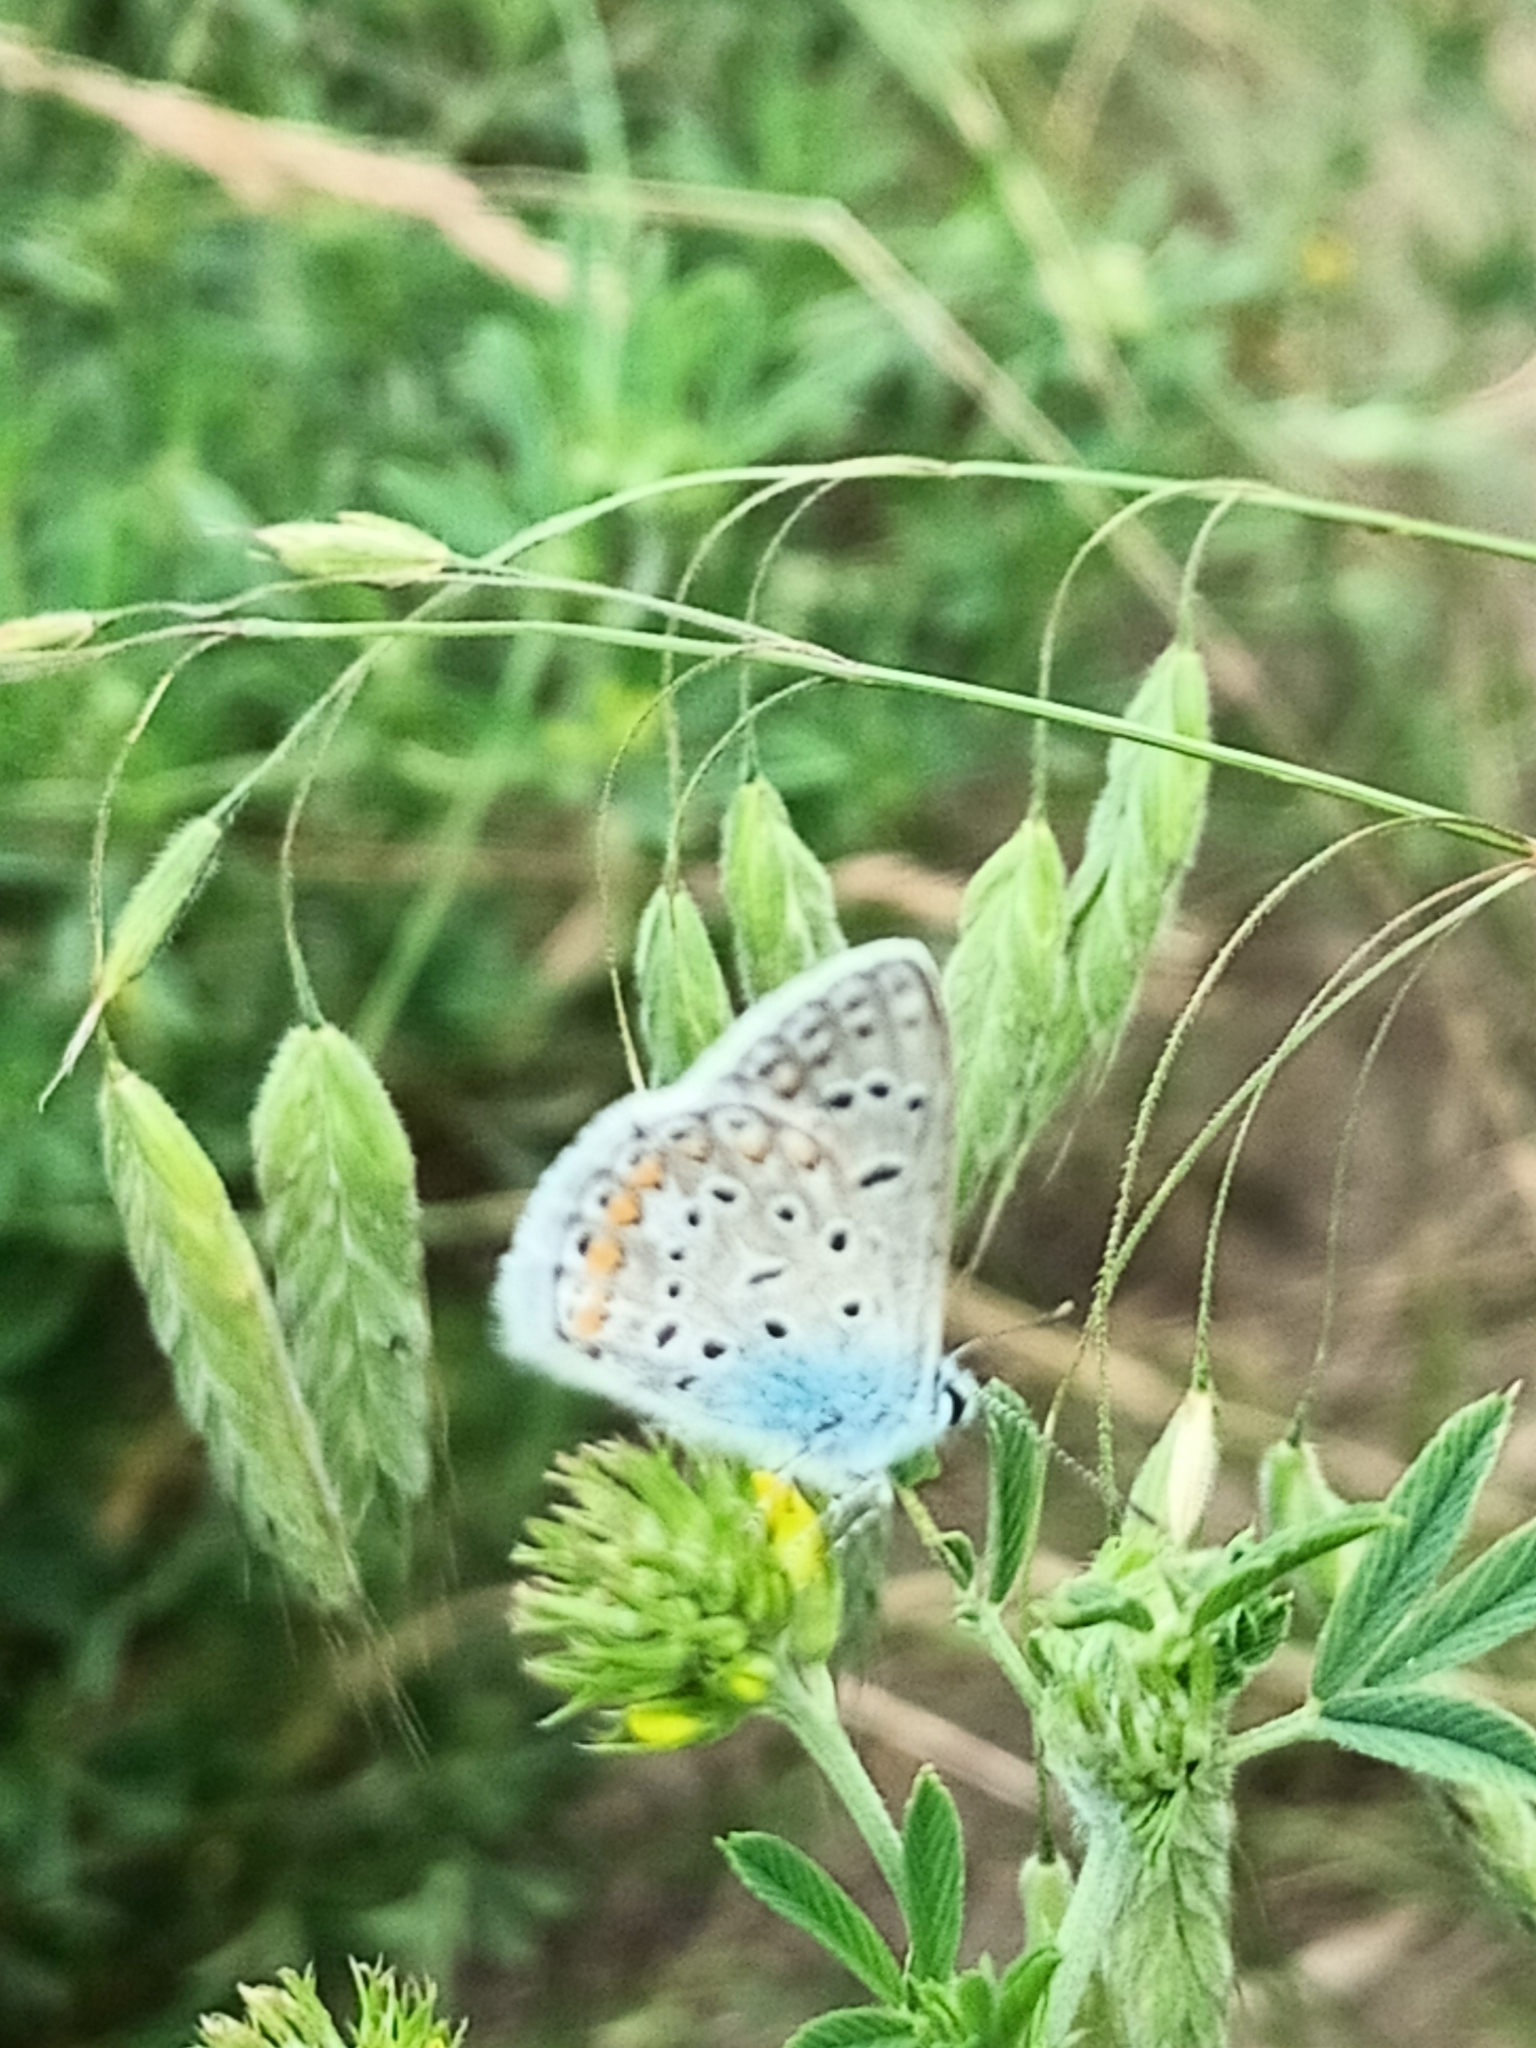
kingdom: Animalia
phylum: Arthropoda
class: Insecta
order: Lepidoptera
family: Lycaenidae
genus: Polyommatus
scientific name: Polyommatus icarus
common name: Common blue
